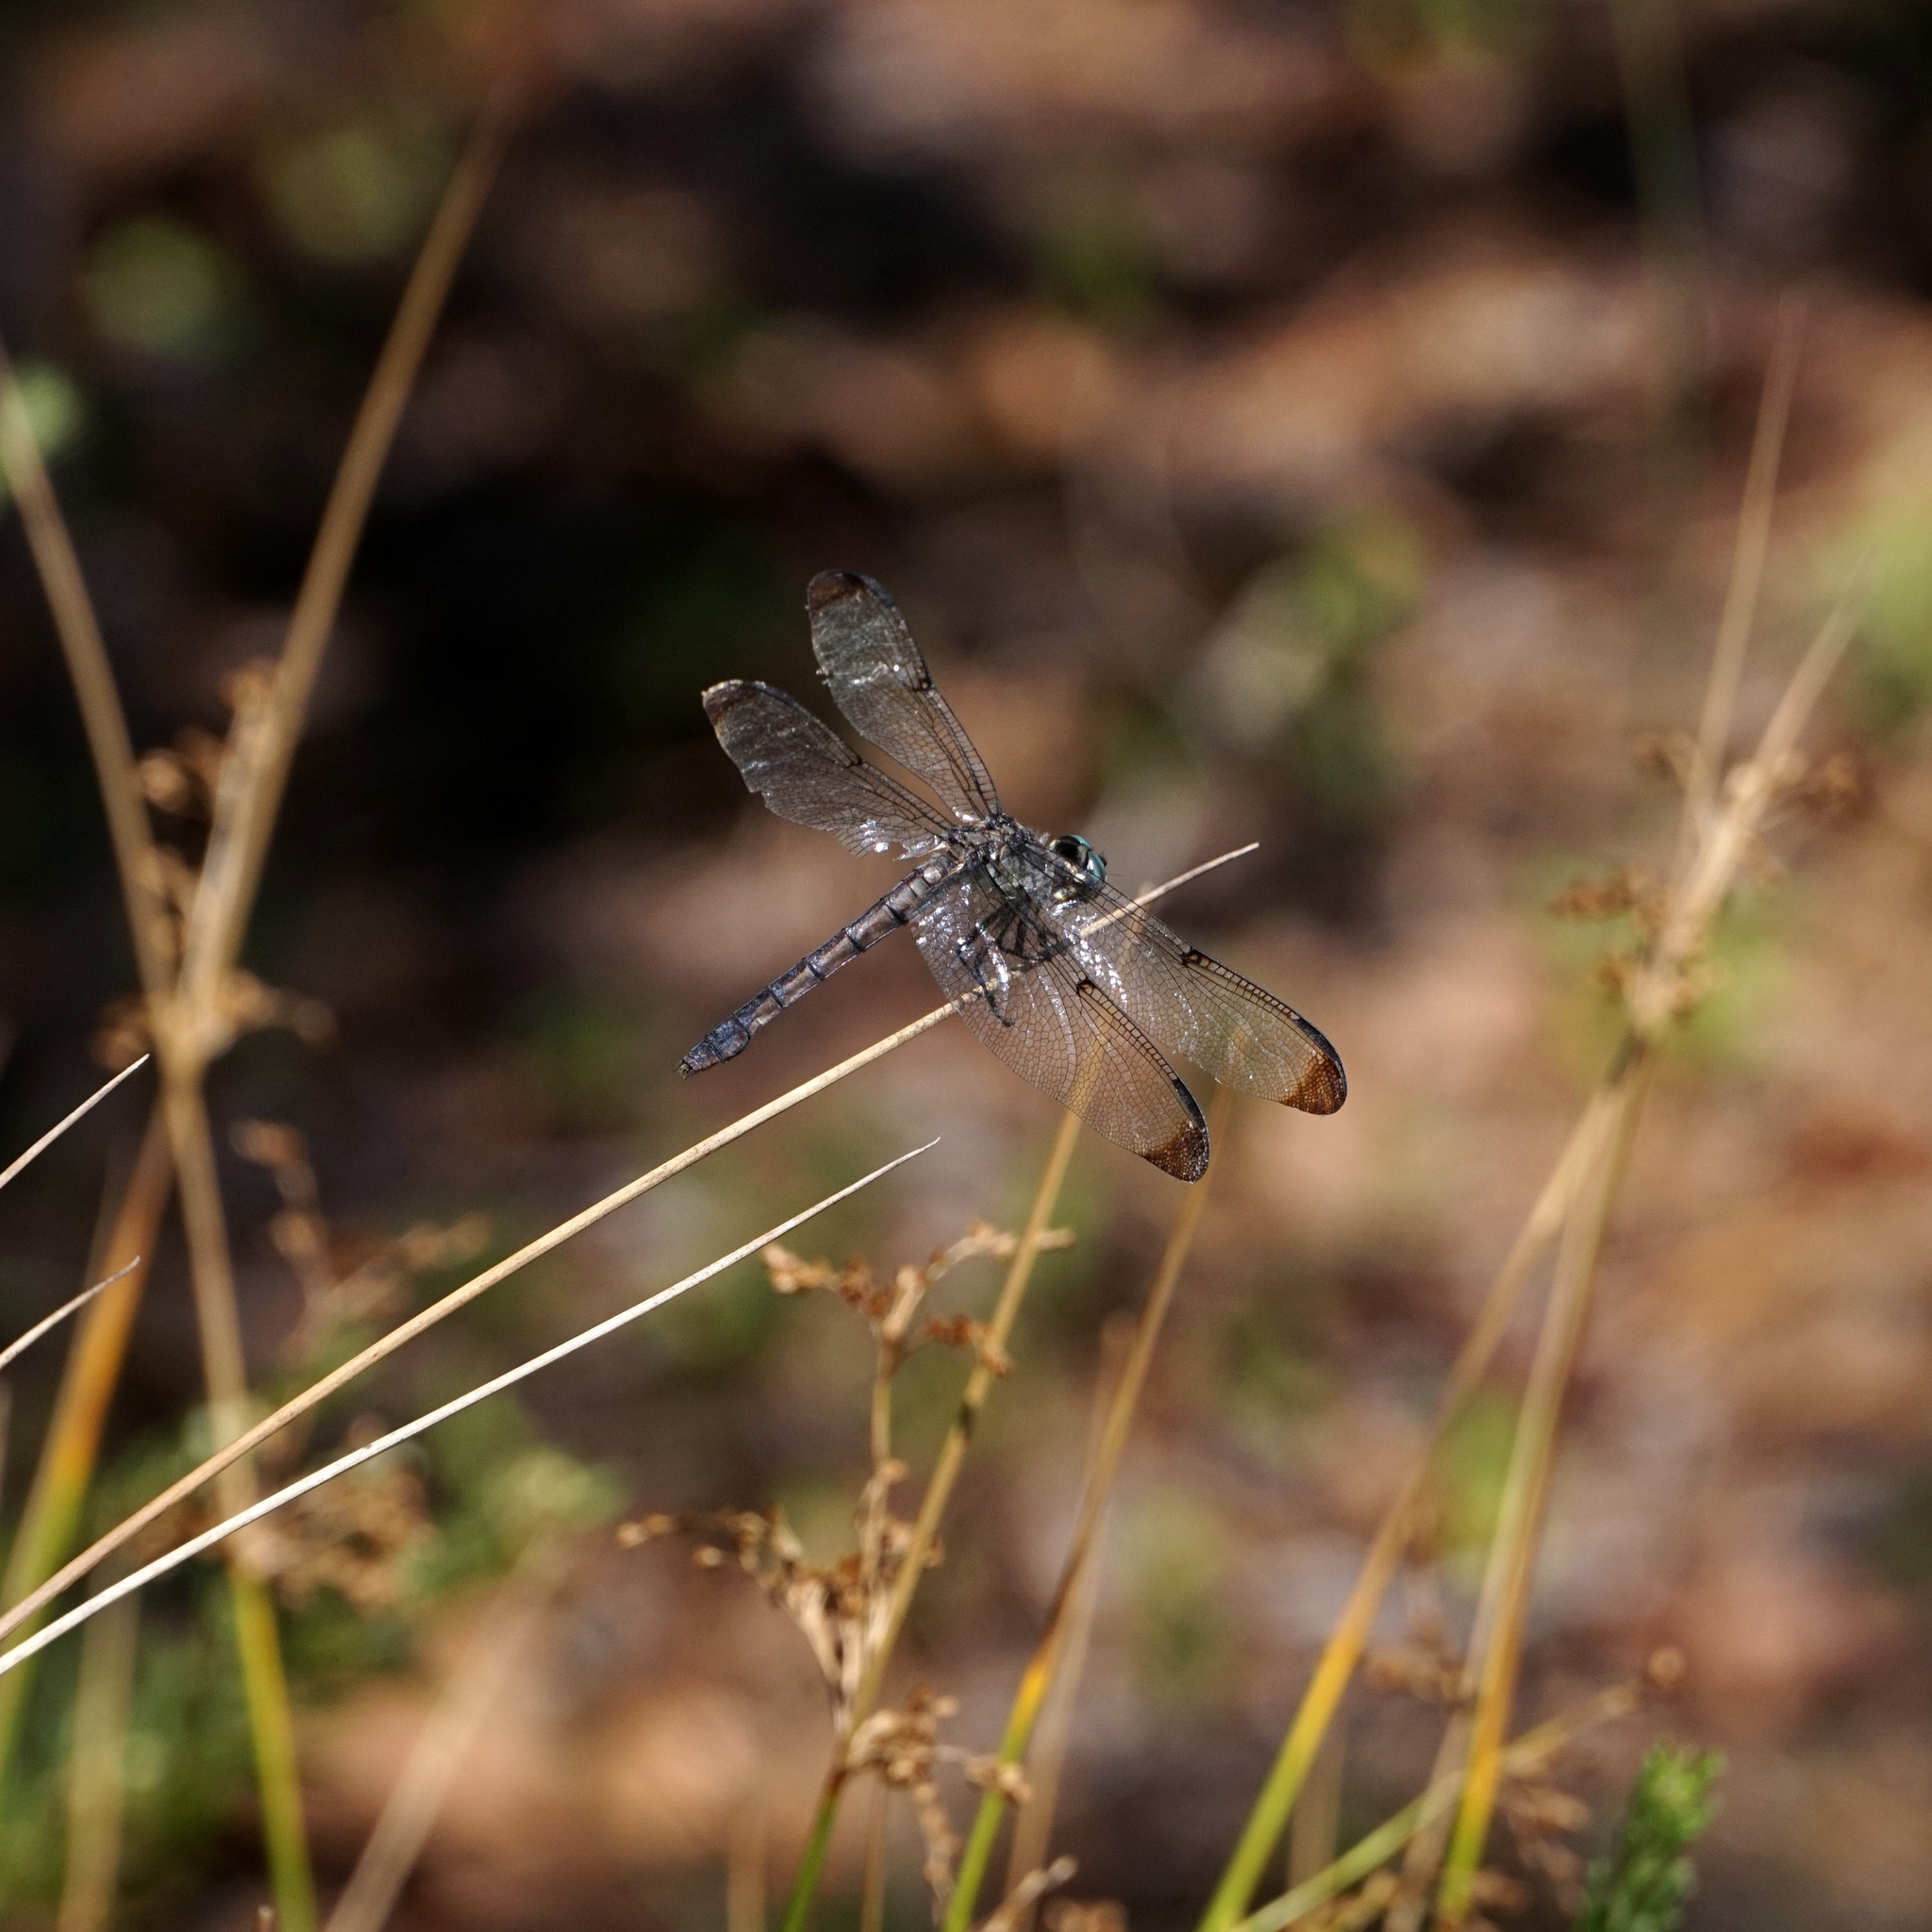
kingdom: Animalia
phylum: Arthropoda
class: Insecta
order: Odonata
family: Libellulidae
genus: Libellula
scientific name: Libellula vibrans
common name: Great blue skimmer
